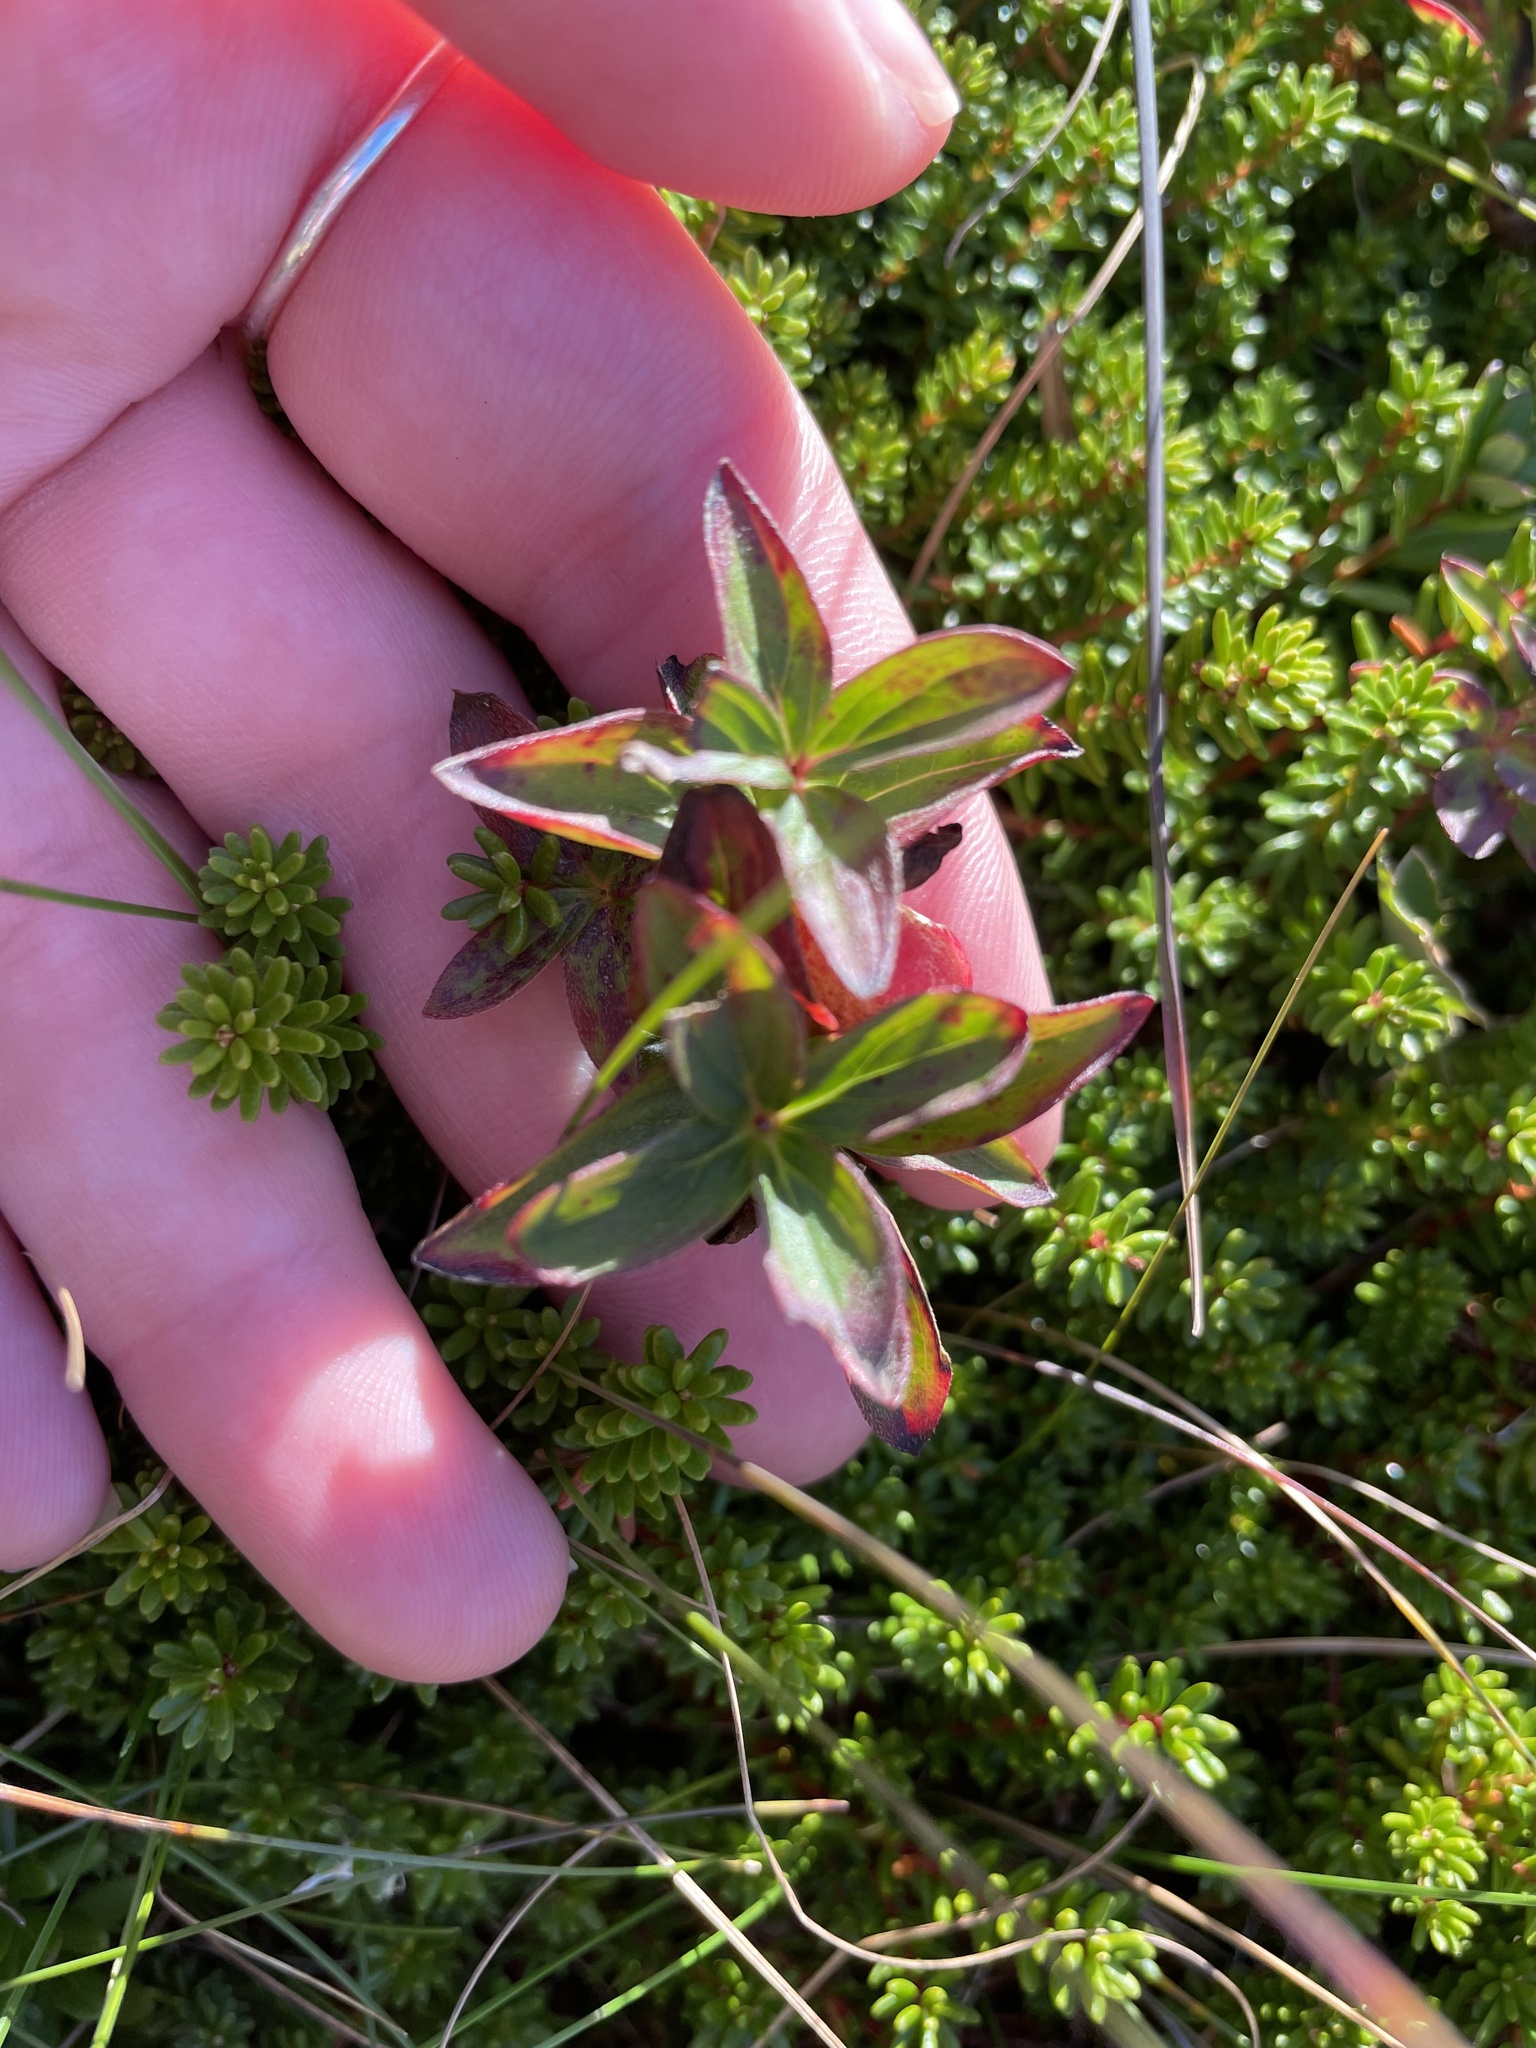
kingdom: Plantae
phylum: Tracheophyta
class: Magnoliopsida
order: Cornales
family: Cornaceae
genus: Cornus
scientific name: Cornus suecica
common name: Dwarf cornel
